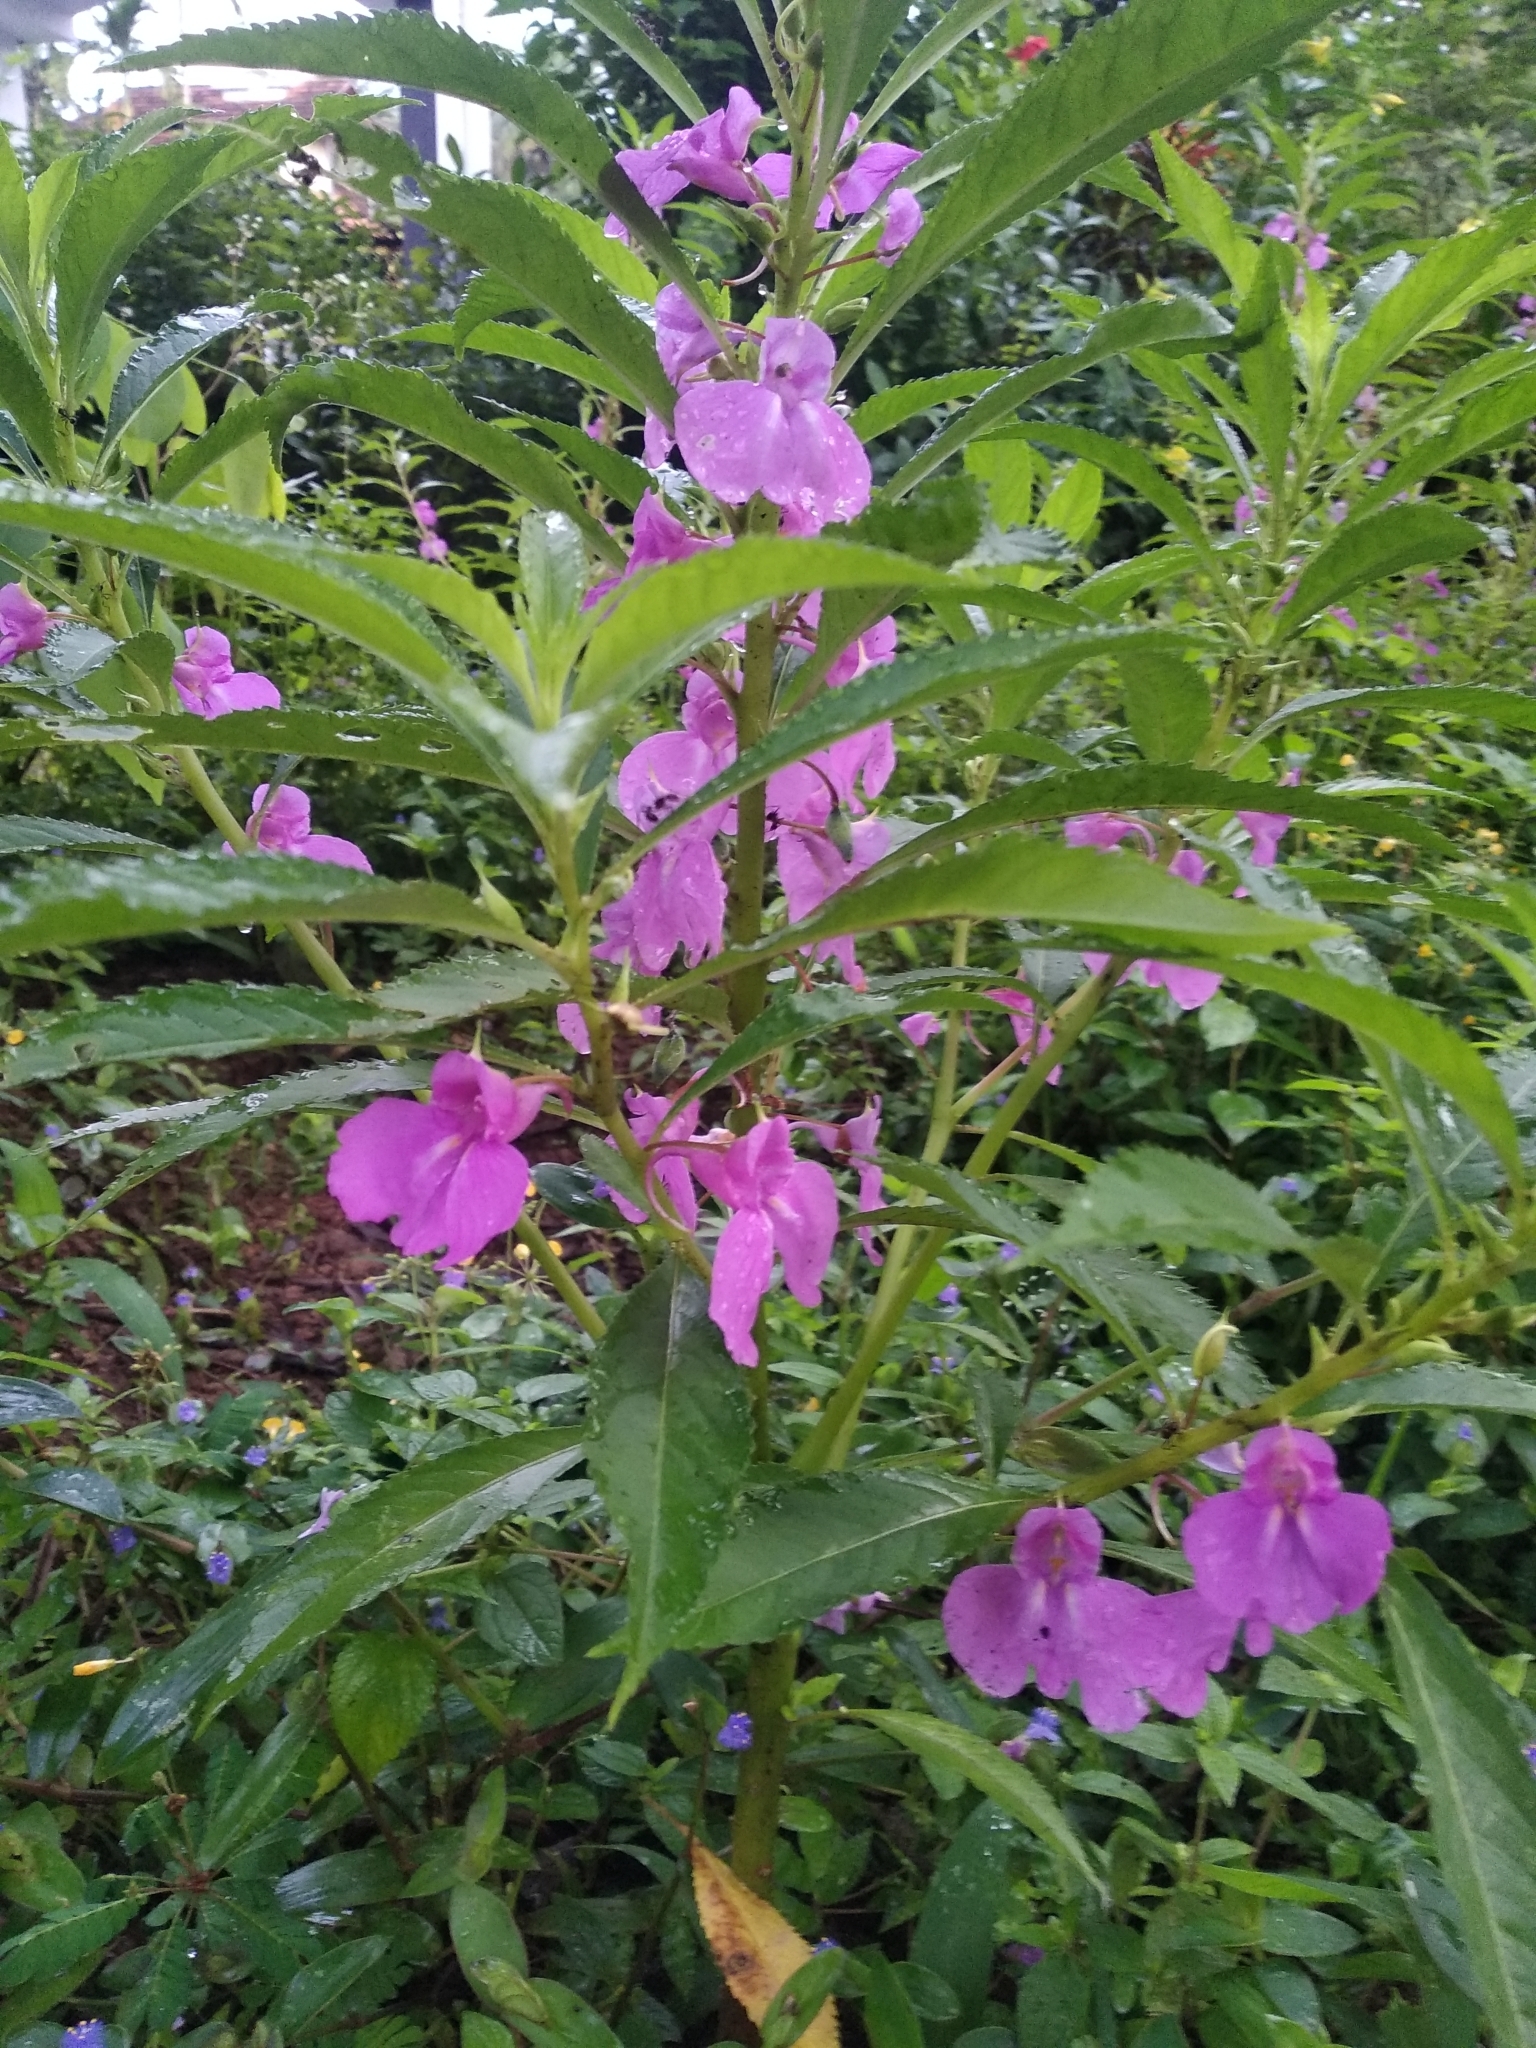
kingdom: Plantae
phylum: Tracheophyta
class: Magnoliopsida
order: Ericales
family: Balsaminaceae
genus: Impatiens
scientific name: Impatiens balsamina
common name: Balsam
